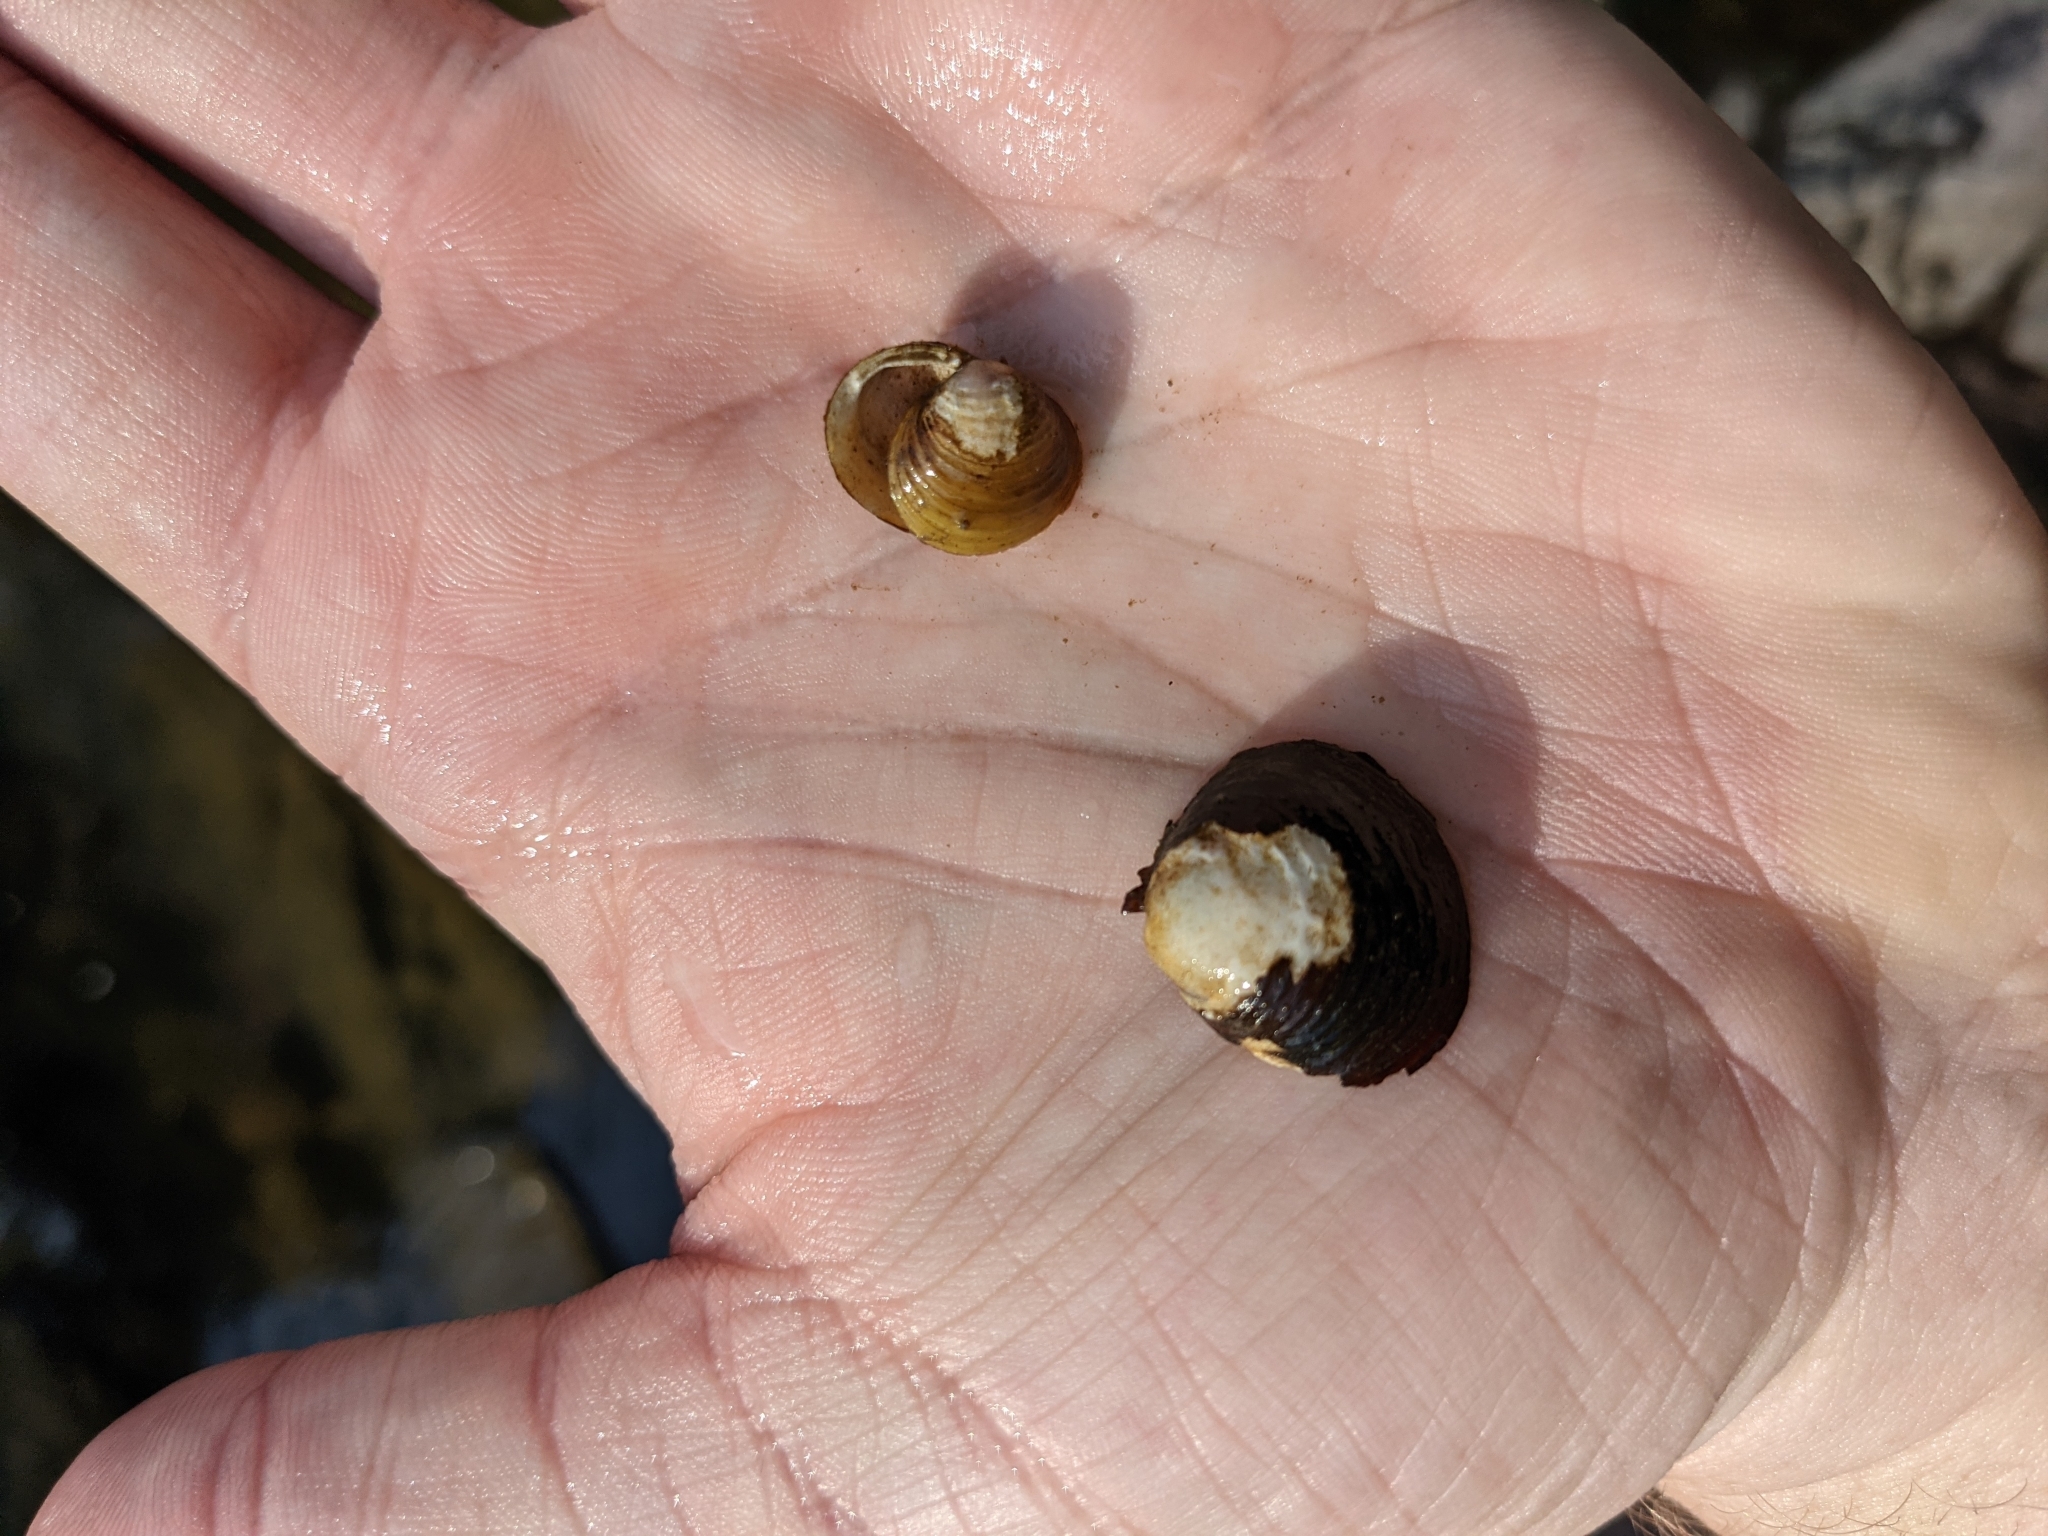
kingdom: Animalia
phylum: Mollusca
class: Bivalvia
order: Venerida
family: Cyrenidae
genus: Corbicula
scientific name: Corbicula fluminea
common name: Asian clam
